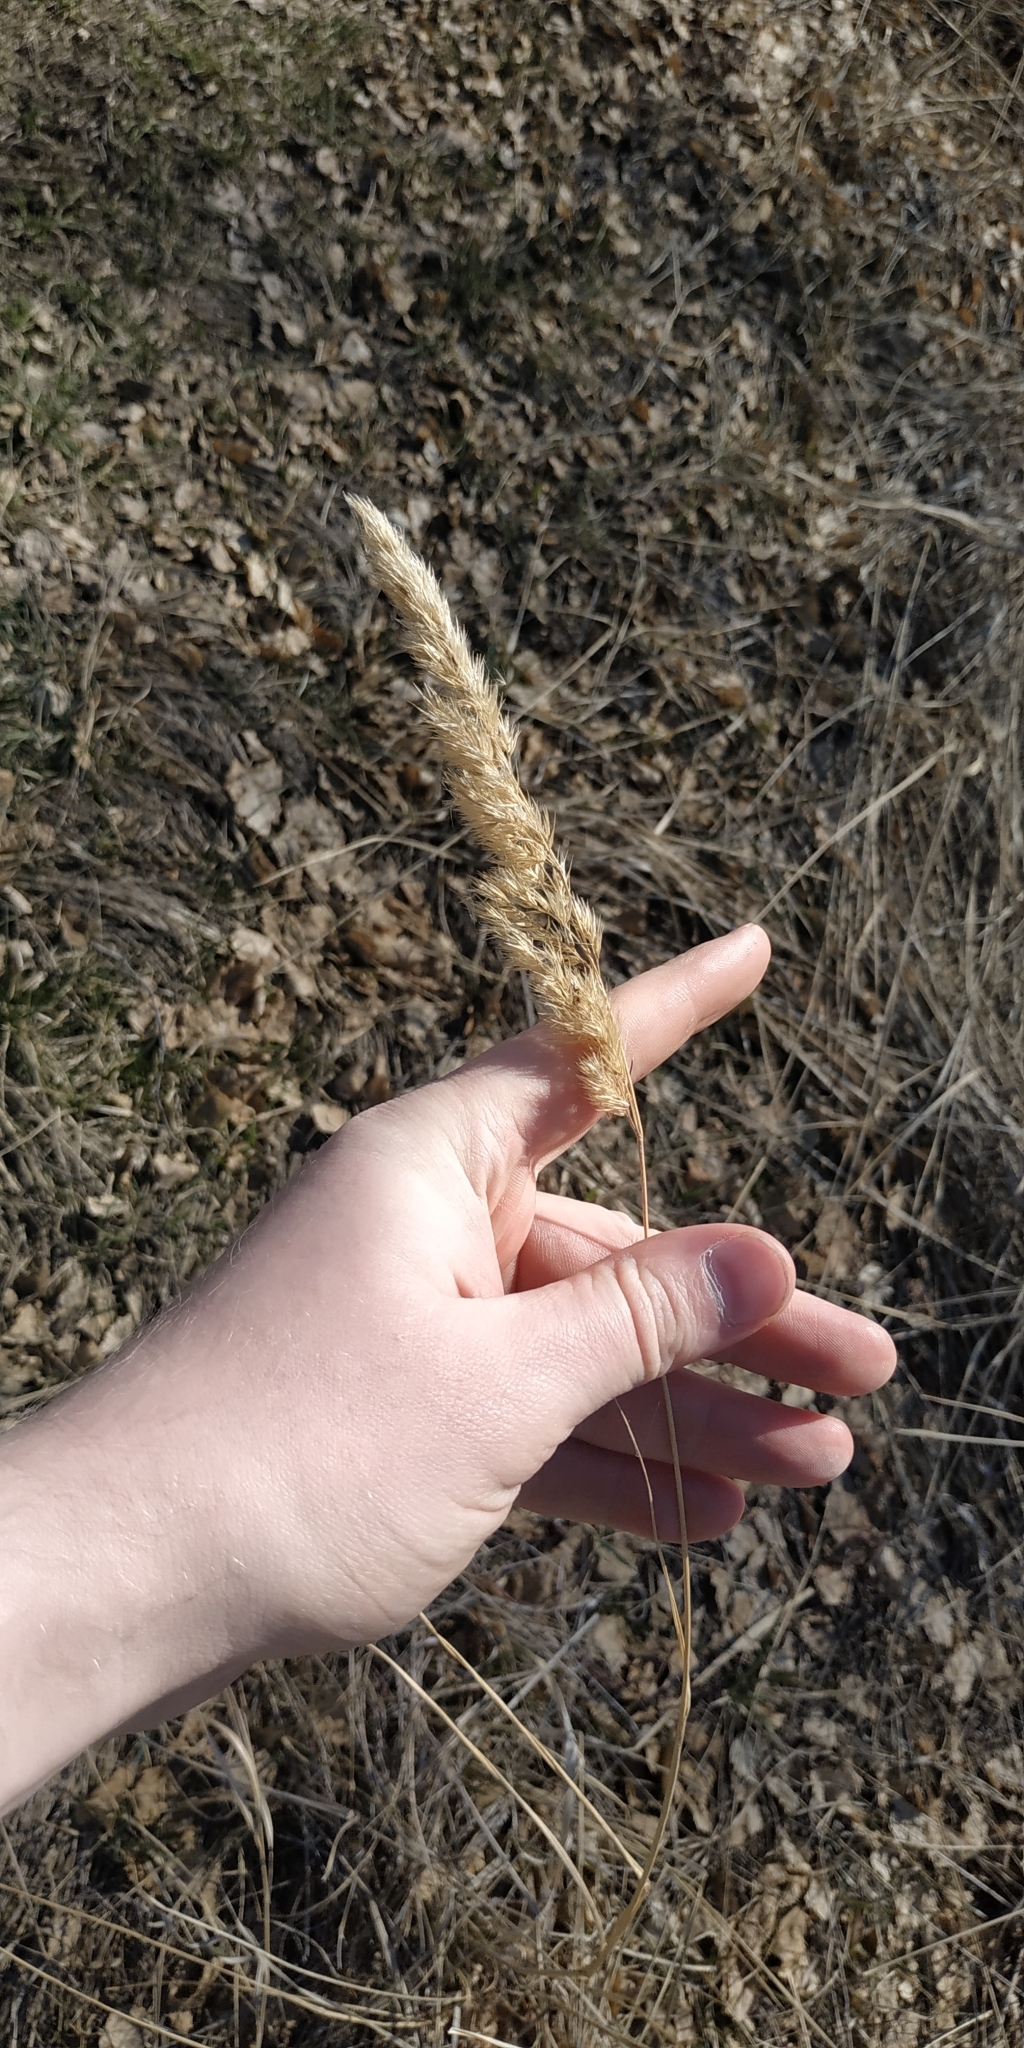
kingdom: Plantae
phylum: Tracheophyta
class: Liliopsida
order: Poales
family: Poaceae
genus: Calamagrostis
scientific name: Calamagrostis epigejos
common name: Wood small-reed
